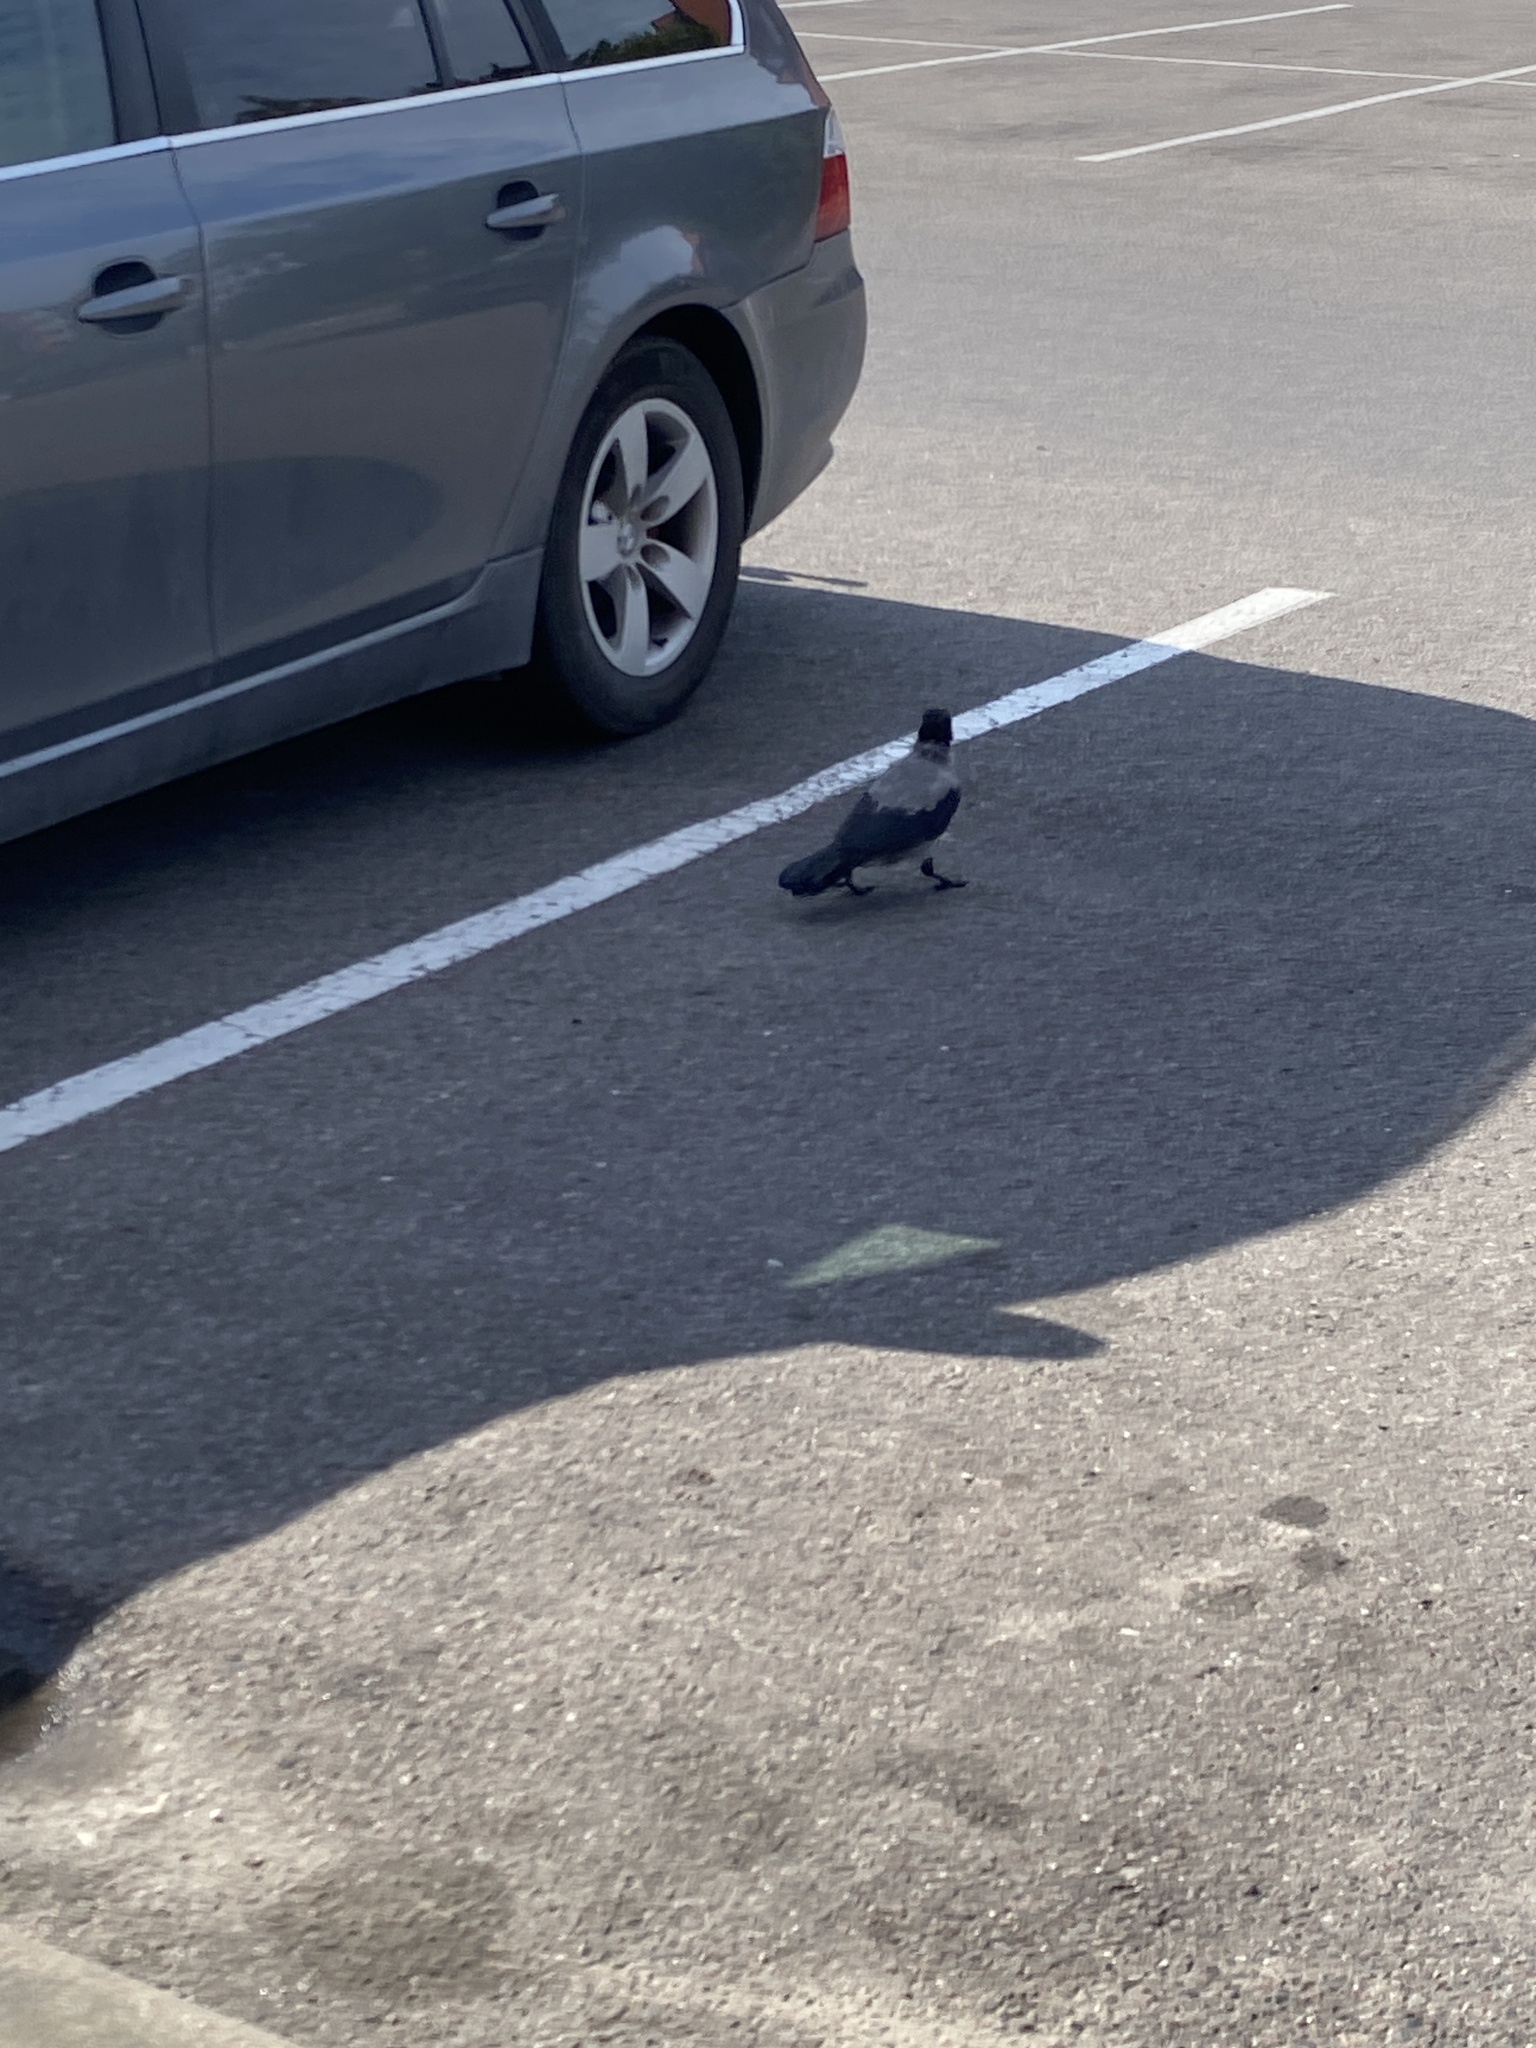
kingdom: Animalia
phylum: Chordata
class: Aves
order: Passeriformes
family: Corvidae
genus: Corvus
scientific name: Corvus cornix
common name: Hooded crow
